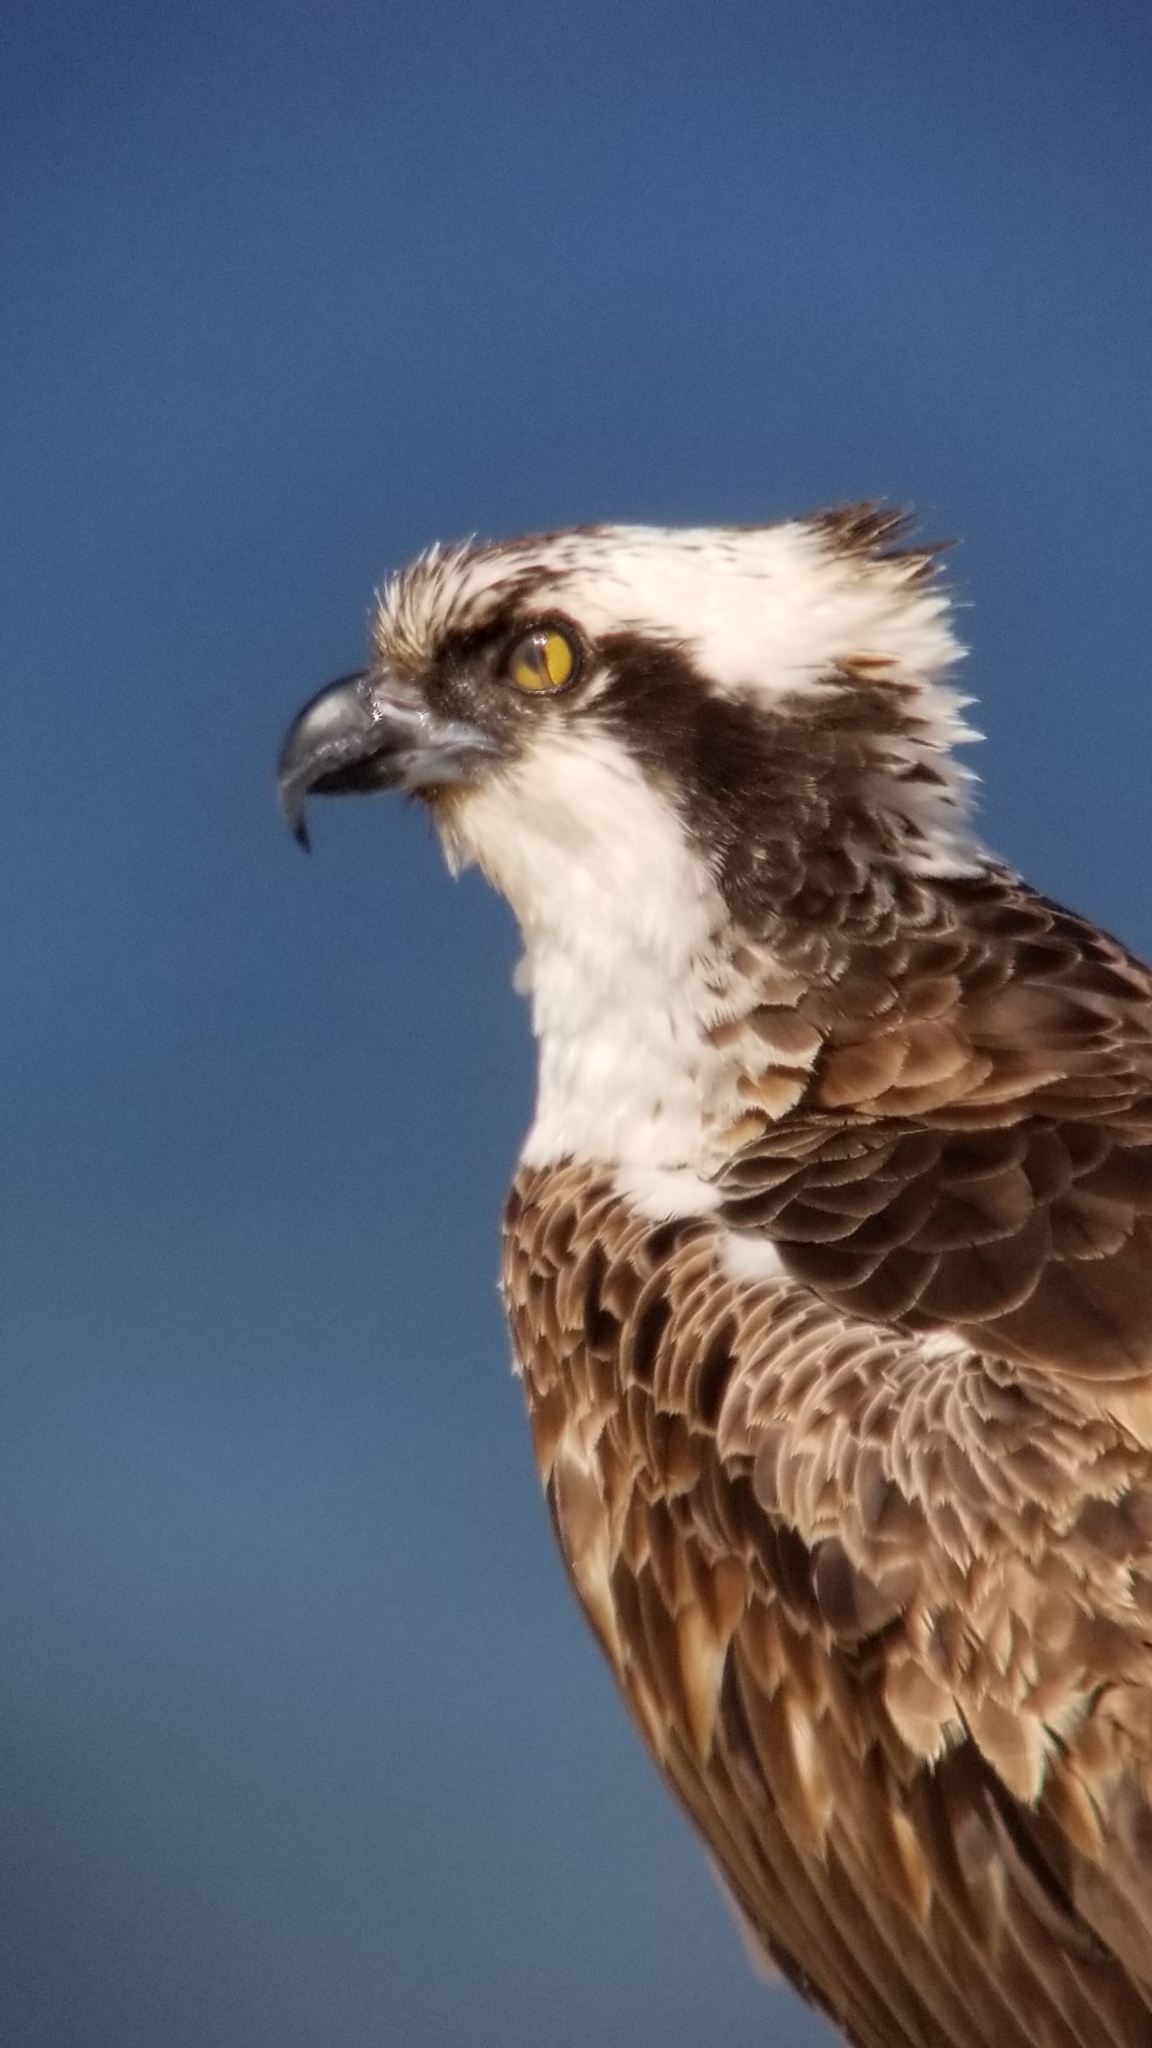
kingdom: Animalia
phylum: Chordata
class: Aves
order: Accipitriformes
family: Pandionidae
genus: Pandion
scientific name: Pandion haliaetus
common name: Osprey
